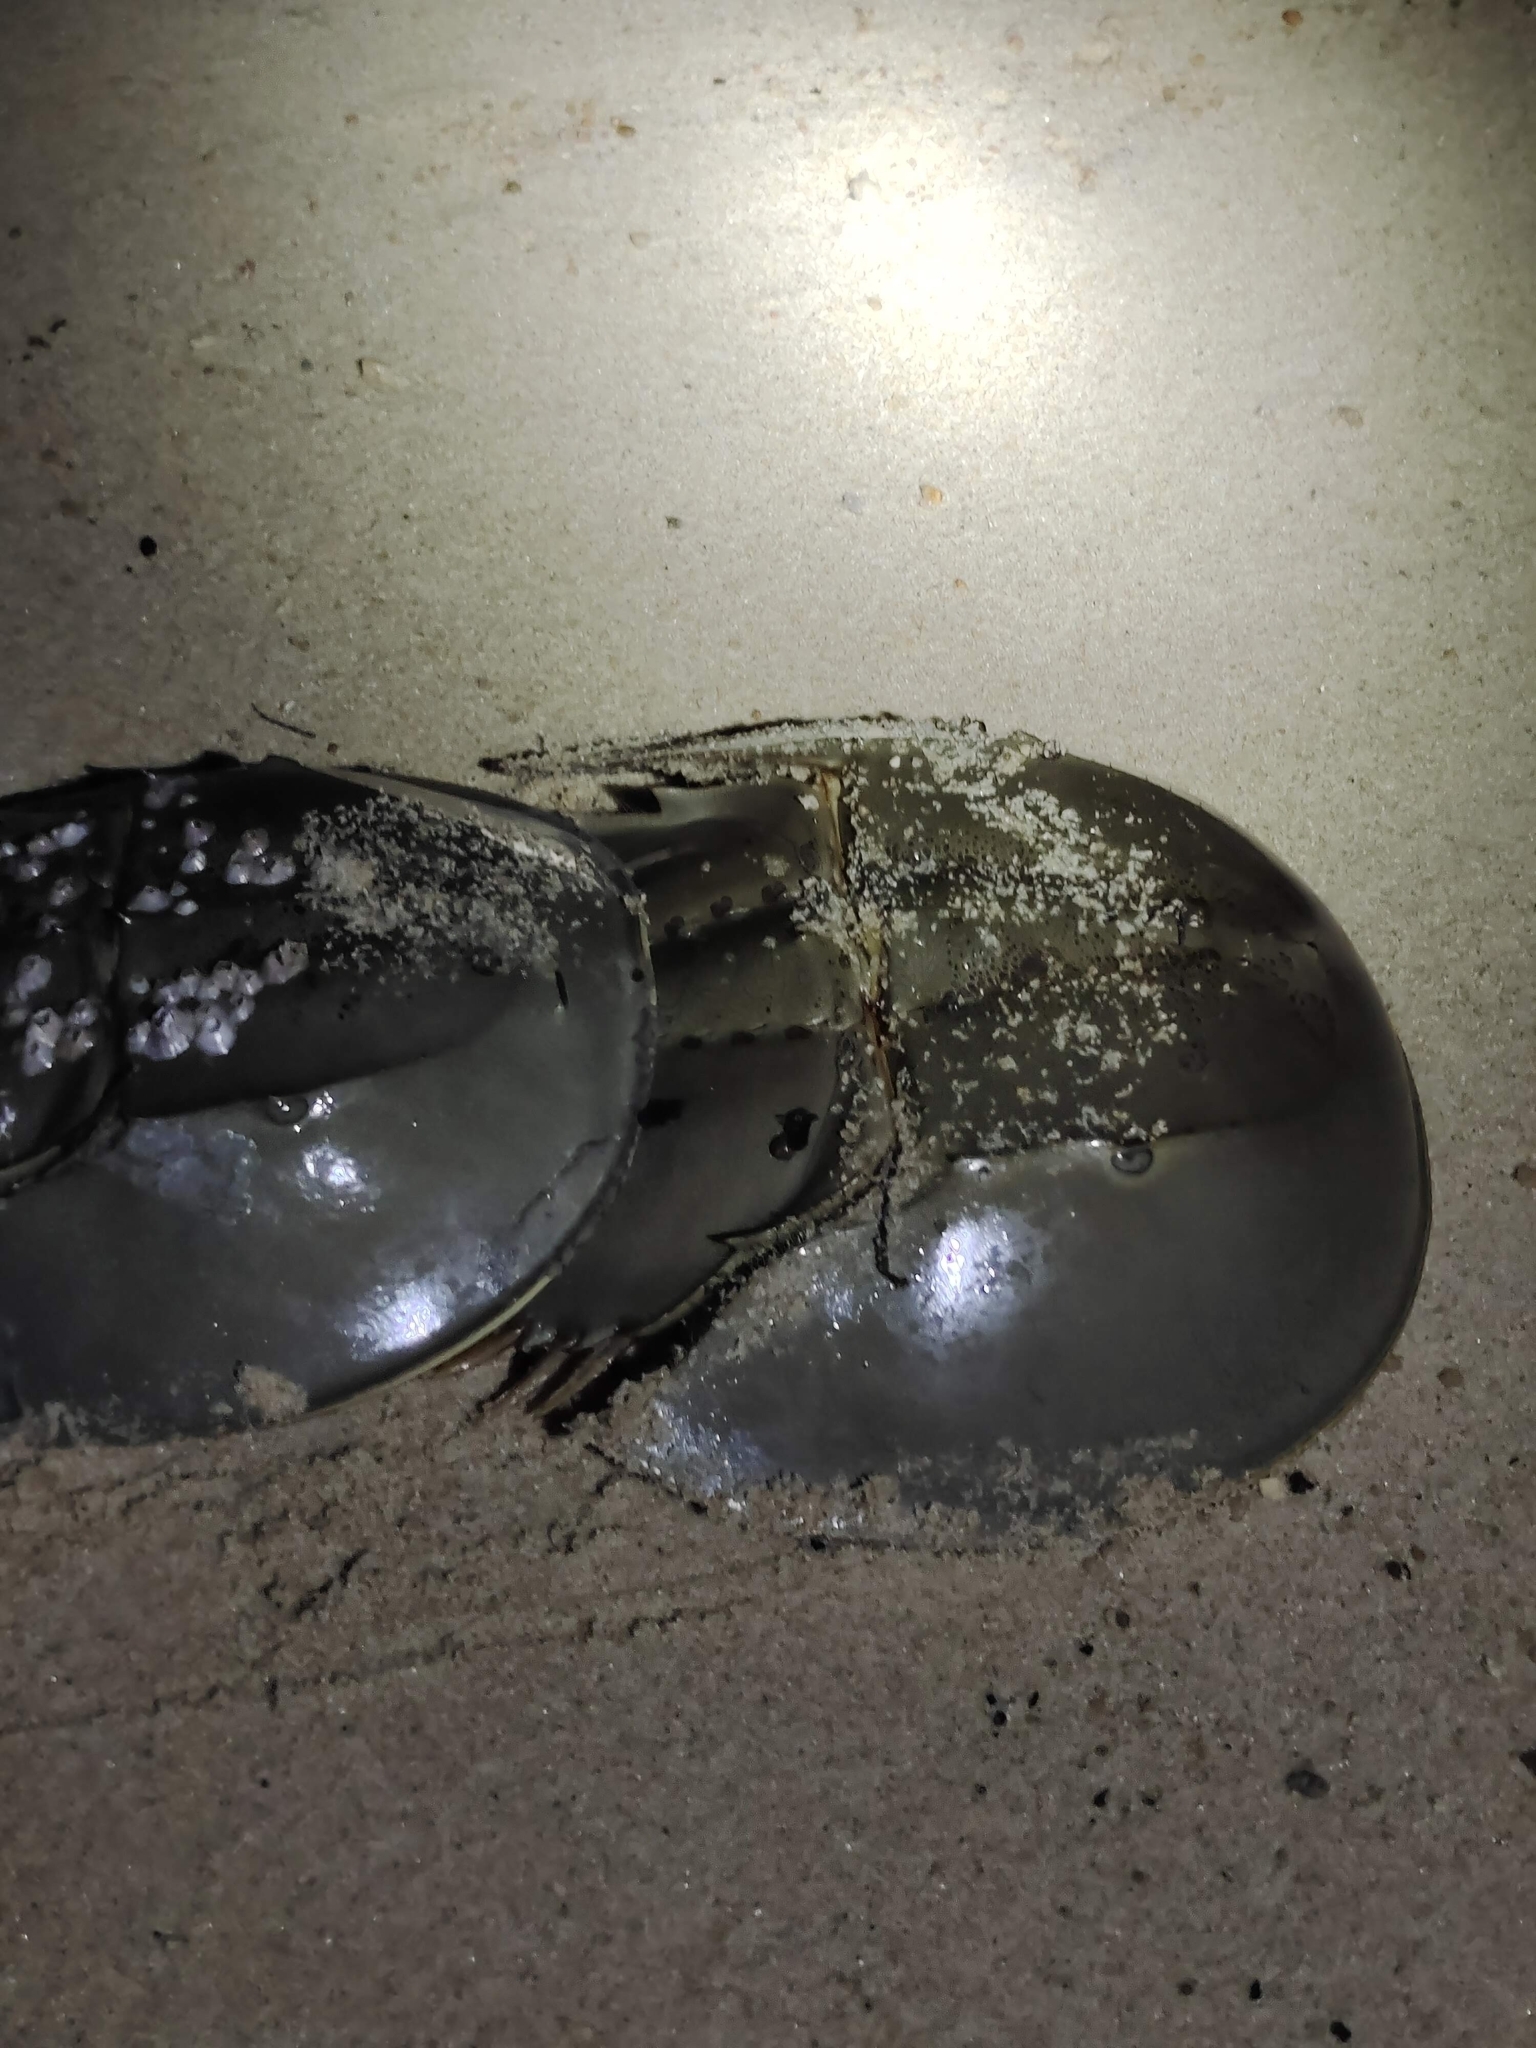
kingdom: Animalia
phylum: Arthropoda
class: Merostomata
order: Xiphosurida
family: Limulidae
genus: Tachypleus
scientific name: Tachypleus gigas
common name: Coastal horseshoe crab
